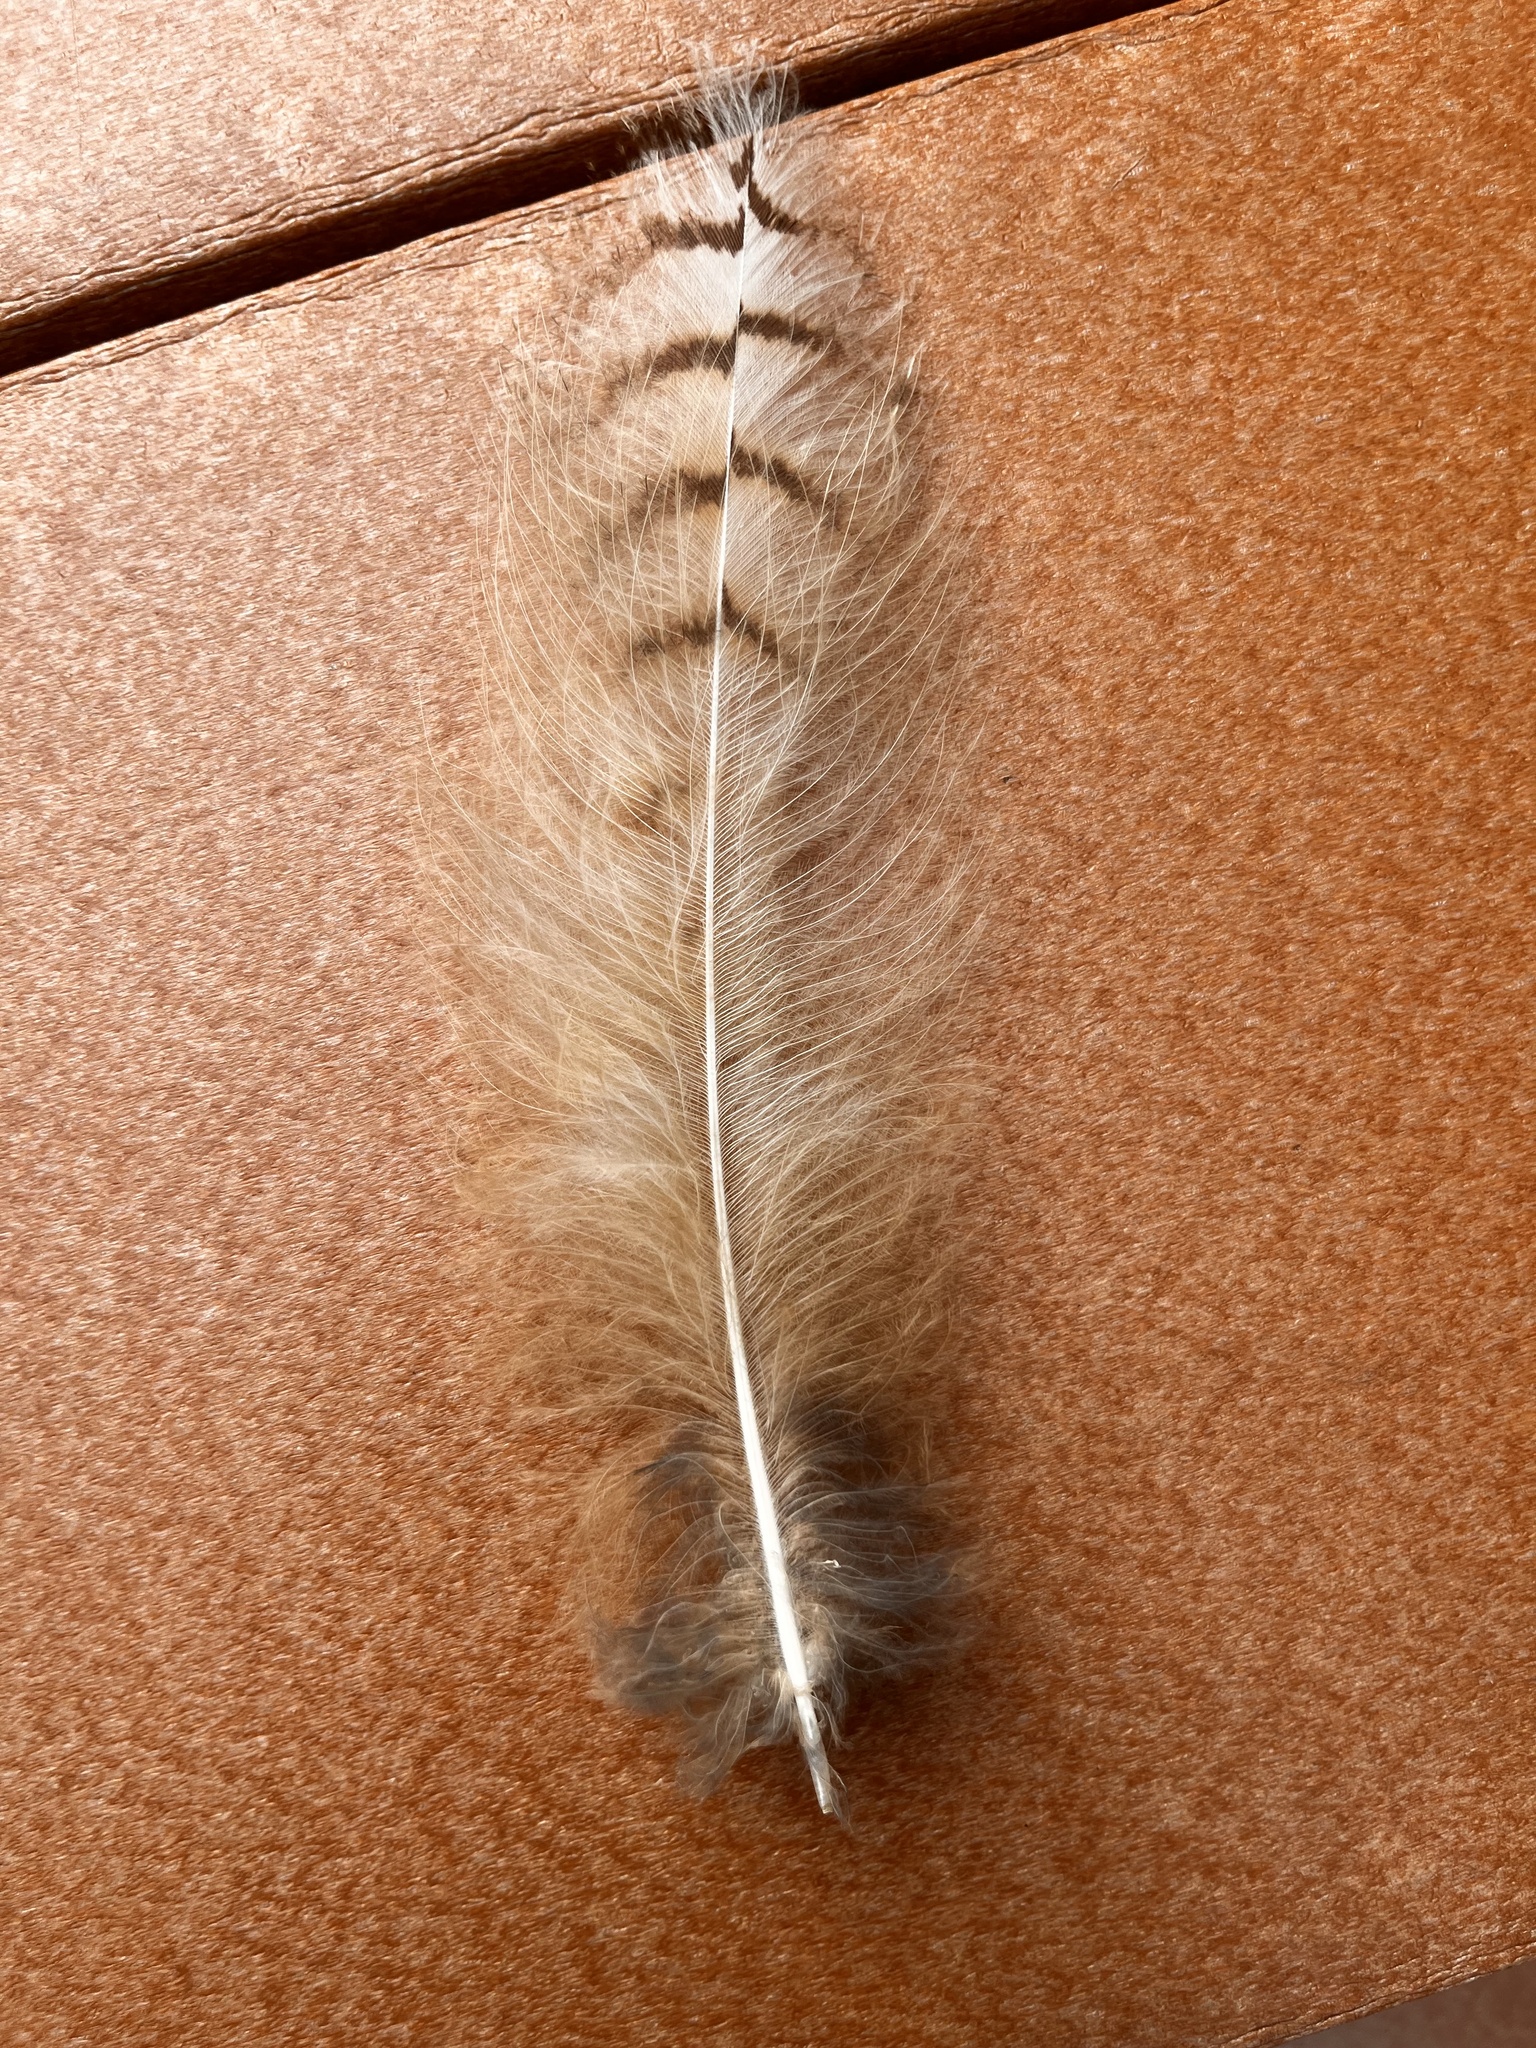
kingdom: Animalia
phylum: Chordata
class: Aves
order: Strigiformes
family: Strigidae
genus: Bubo
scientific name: Bubo virginianus
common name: Great horned owl
